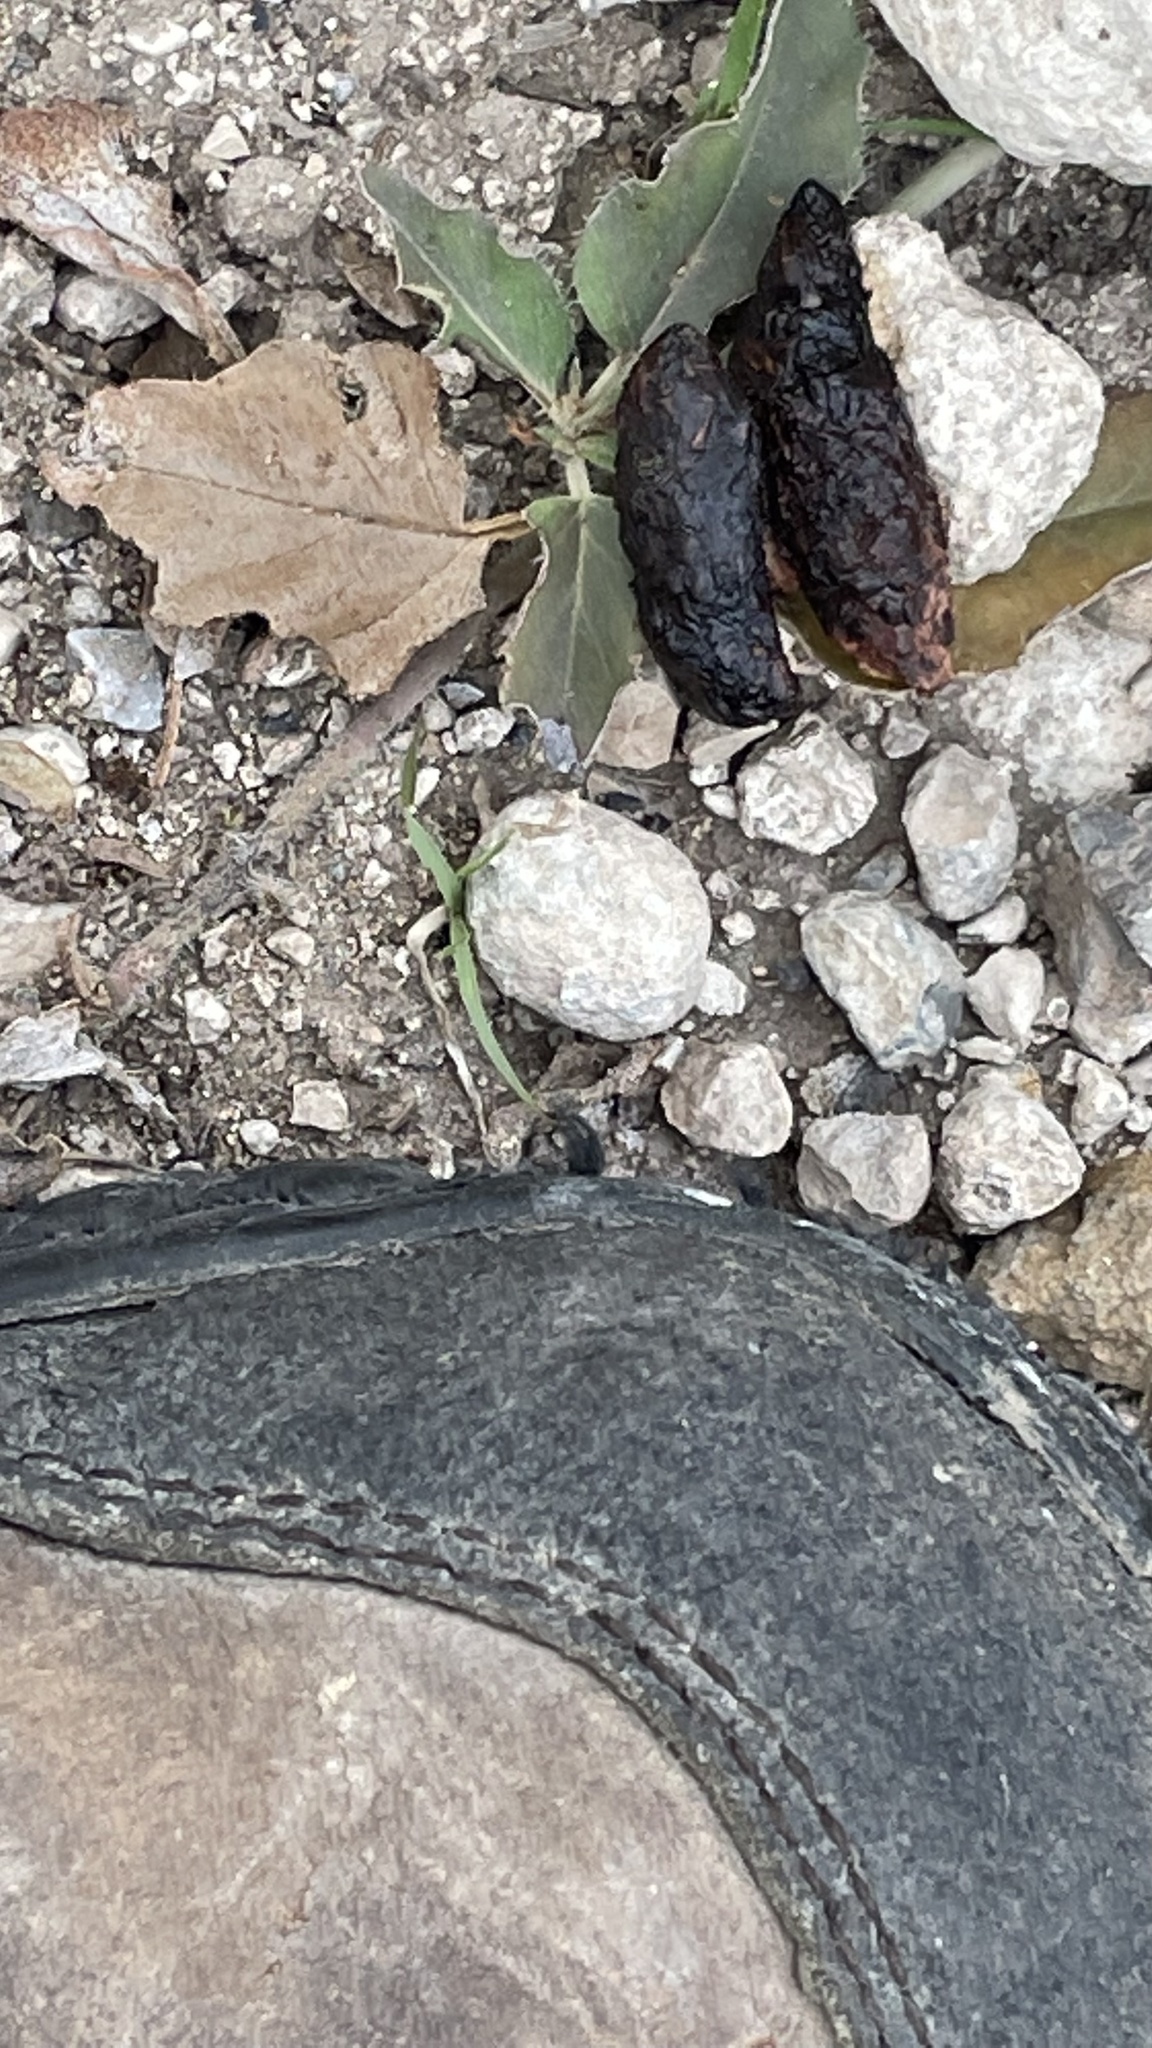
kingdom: Animalia
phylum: Chordata
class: Mammalia
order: Carnivora
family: Canidae
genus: Urocyon
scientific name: Urocyon cinereoargenteus
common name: Gray fox
